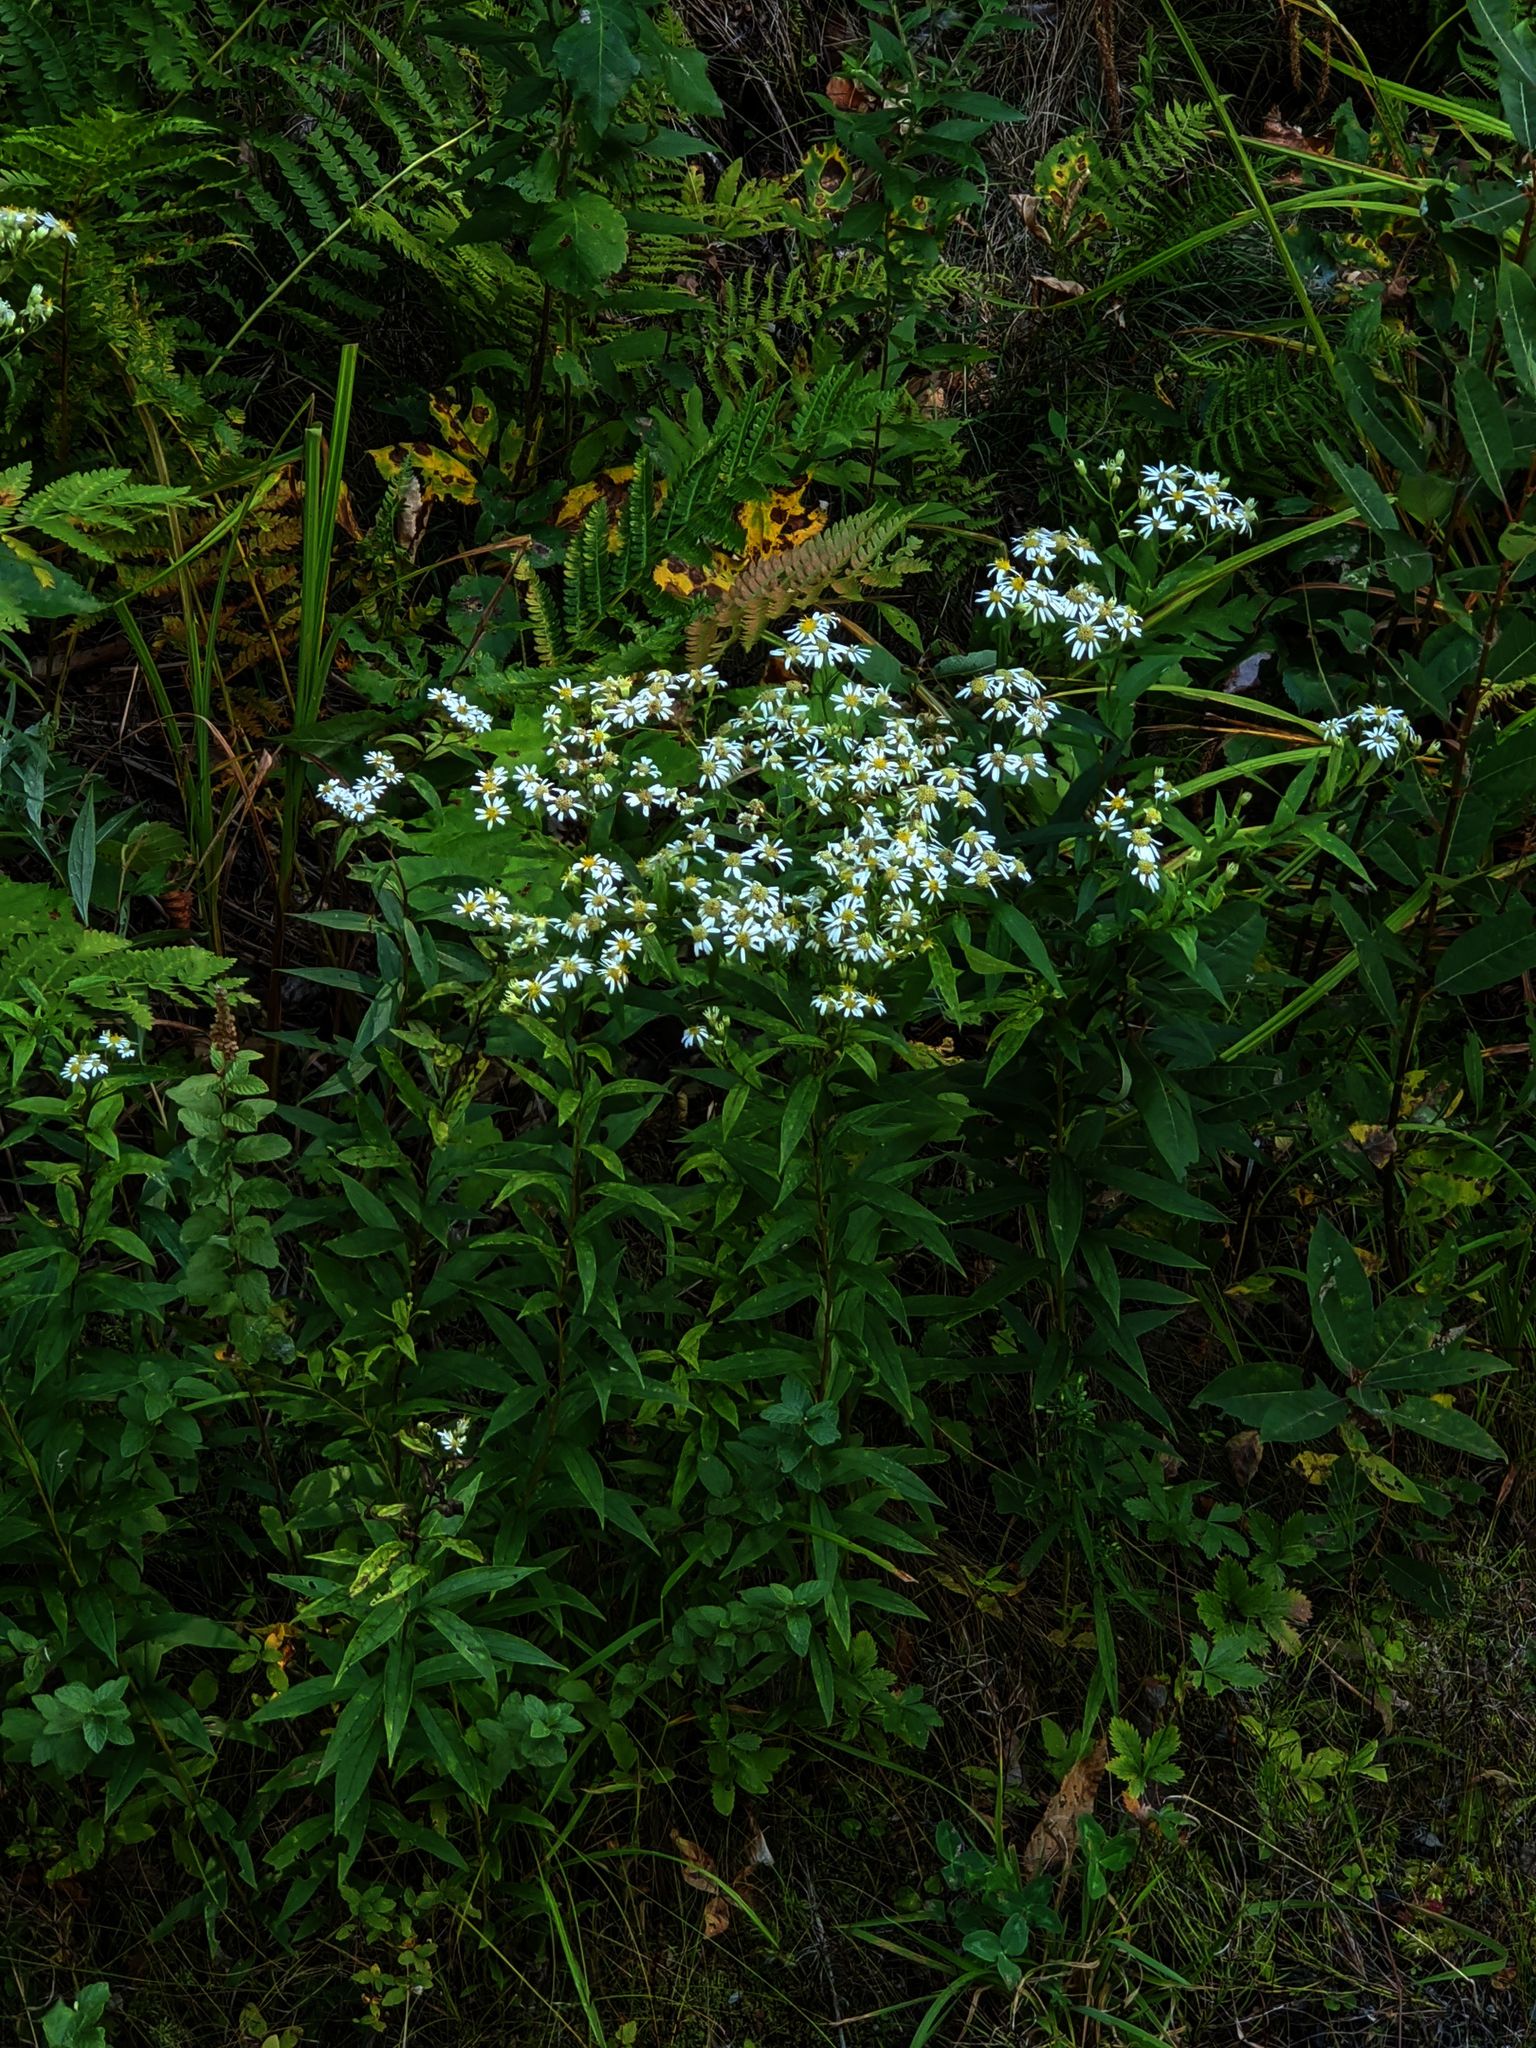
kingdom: Plantae
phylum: Tracheophyta
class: Magnoliopsida
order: Asterales
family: Asteraceae
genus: Doellingeria
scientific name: Doellingeria umbellata
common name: Flat-top white aster
